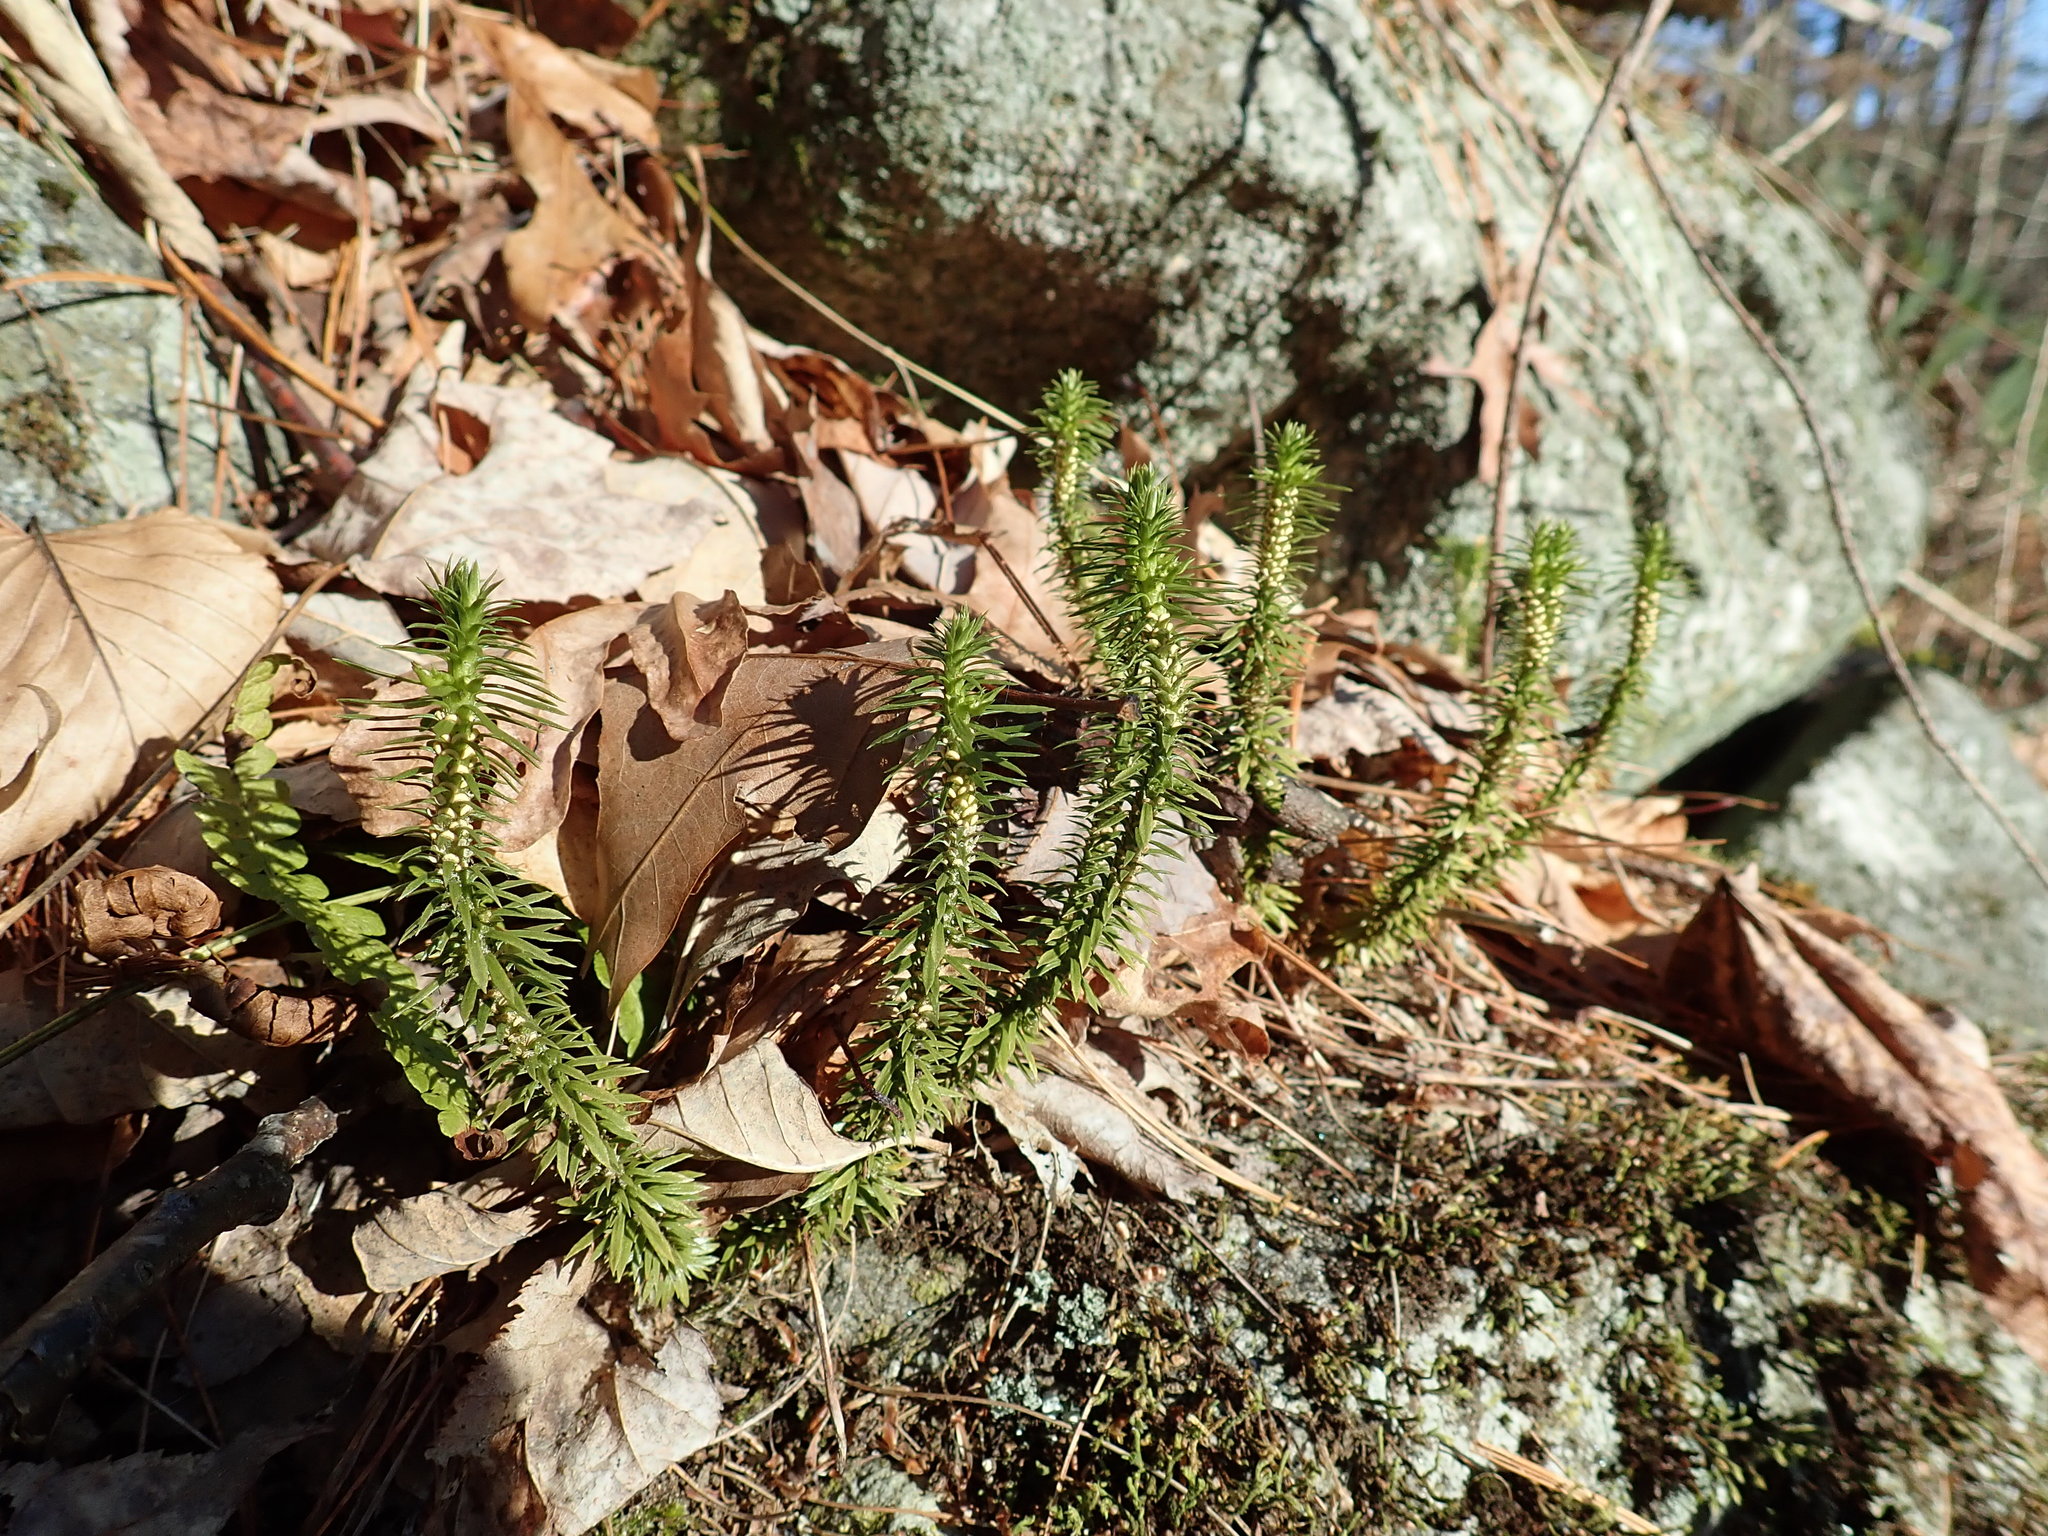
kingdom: Plantae
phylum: Tracheophyta
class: Lycopodiopsida
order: Lycopodiales
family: Lycopodiaceae
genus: Huperzia
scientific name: Huperzia lucidula
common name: Shining clubmoss
